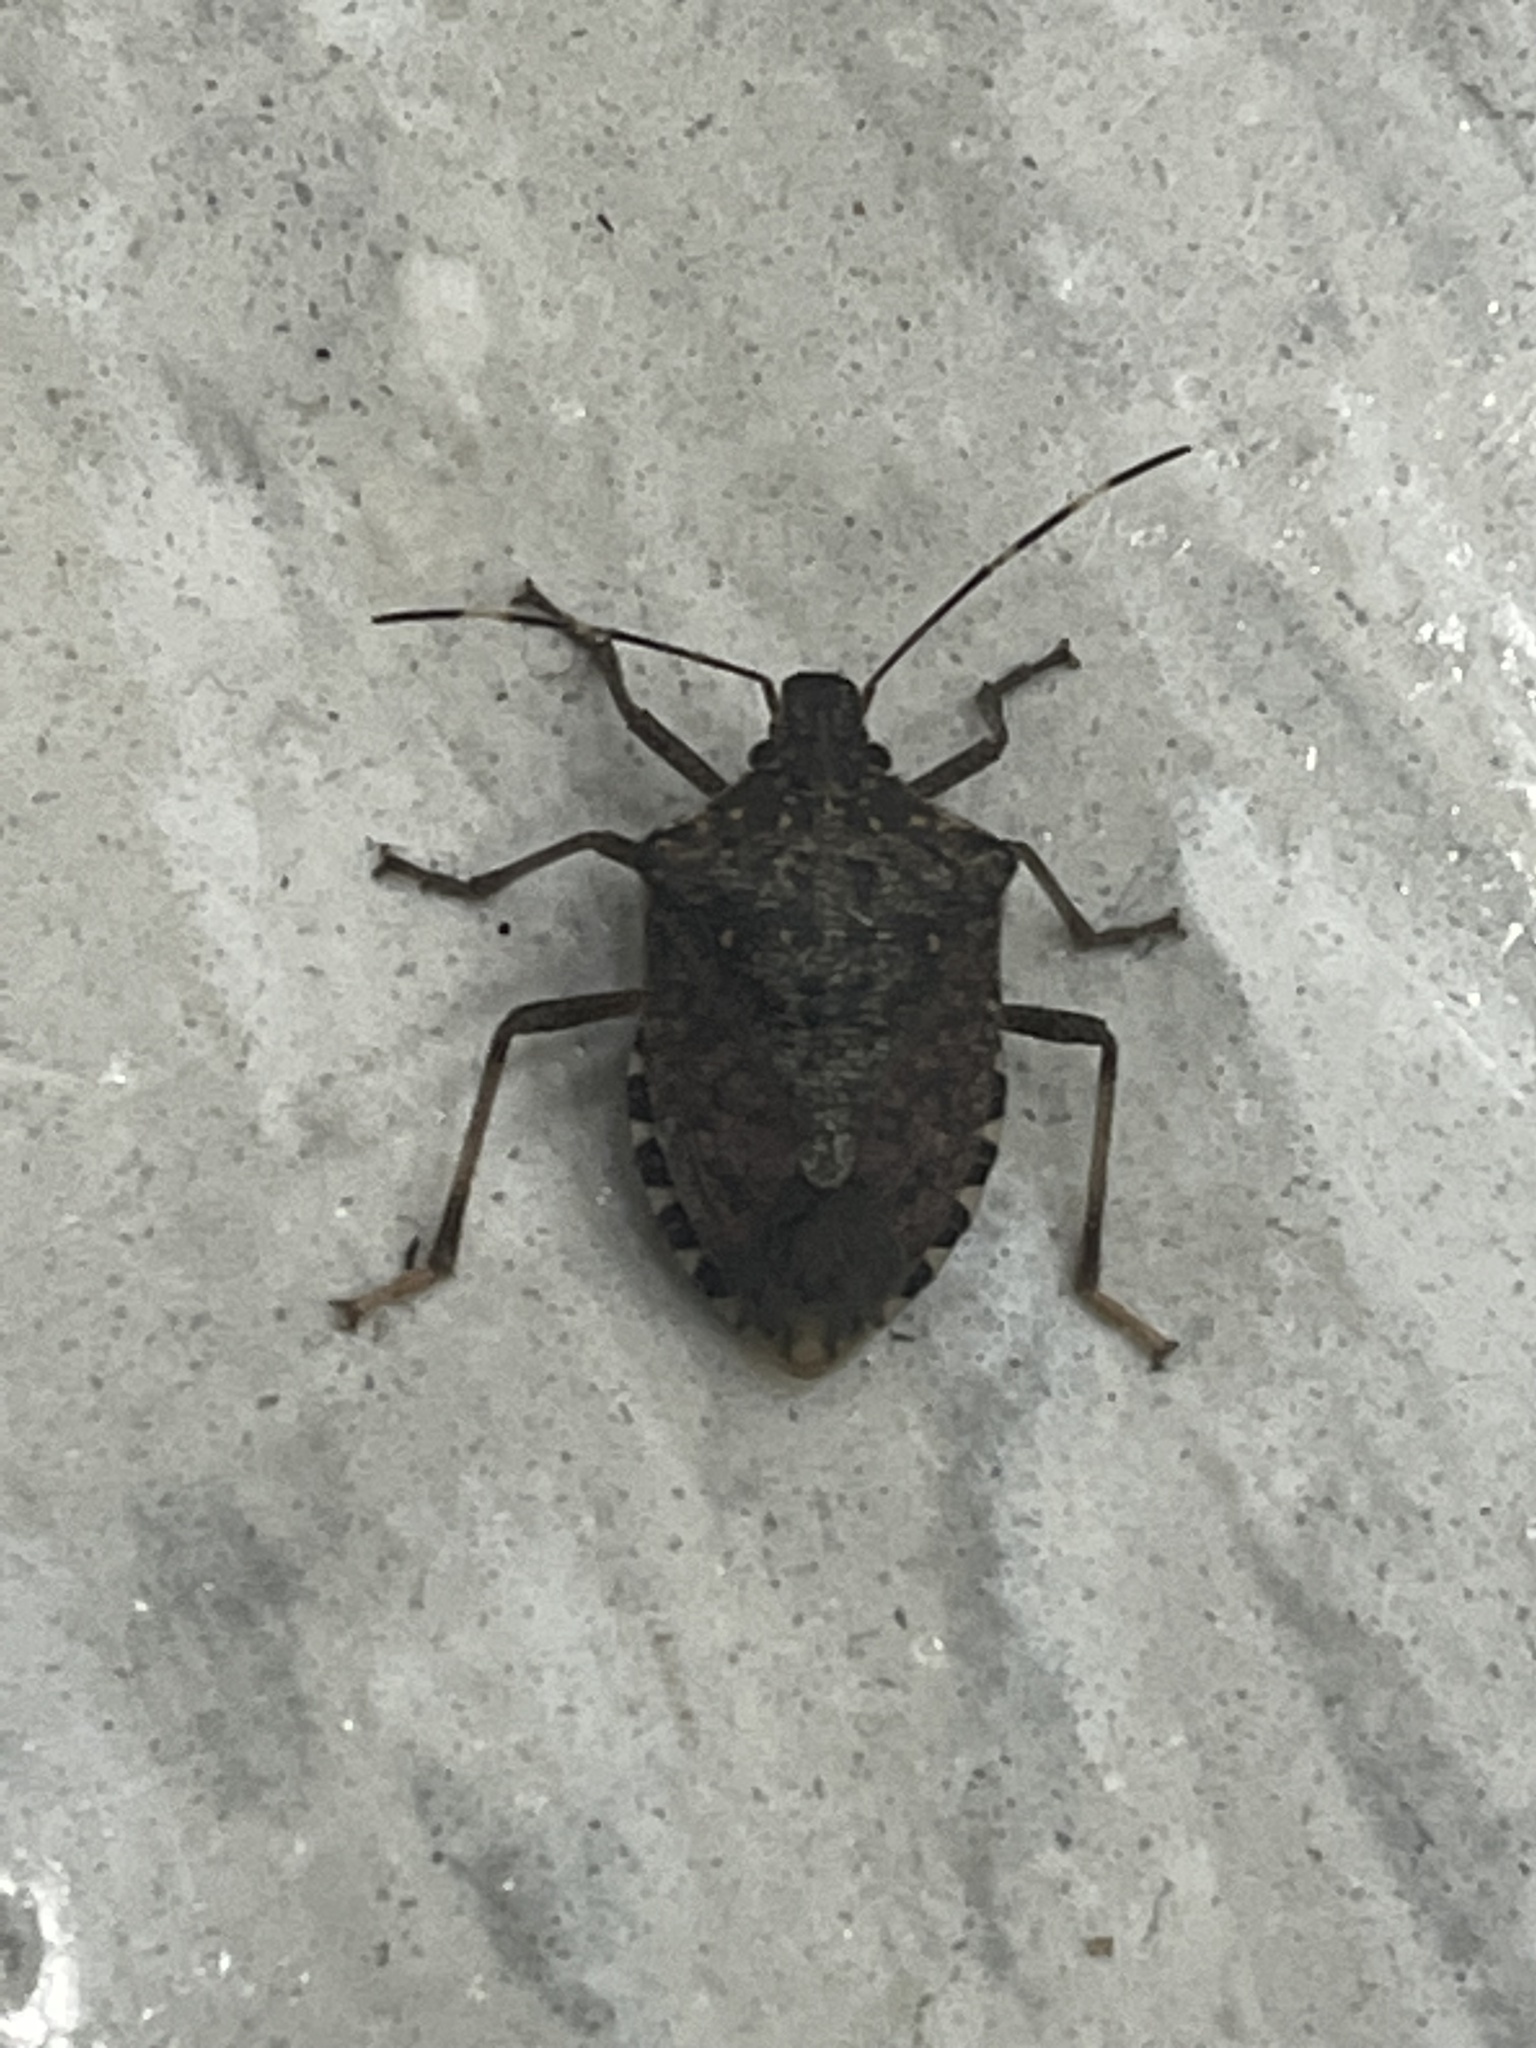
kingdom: Animalia
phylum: Arthropoda
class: Insecta
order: Hemiptera
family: Pentatomidae
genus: Halyomorpha
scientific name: Halyomorpha halys
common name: Brown marmorated stink bug
